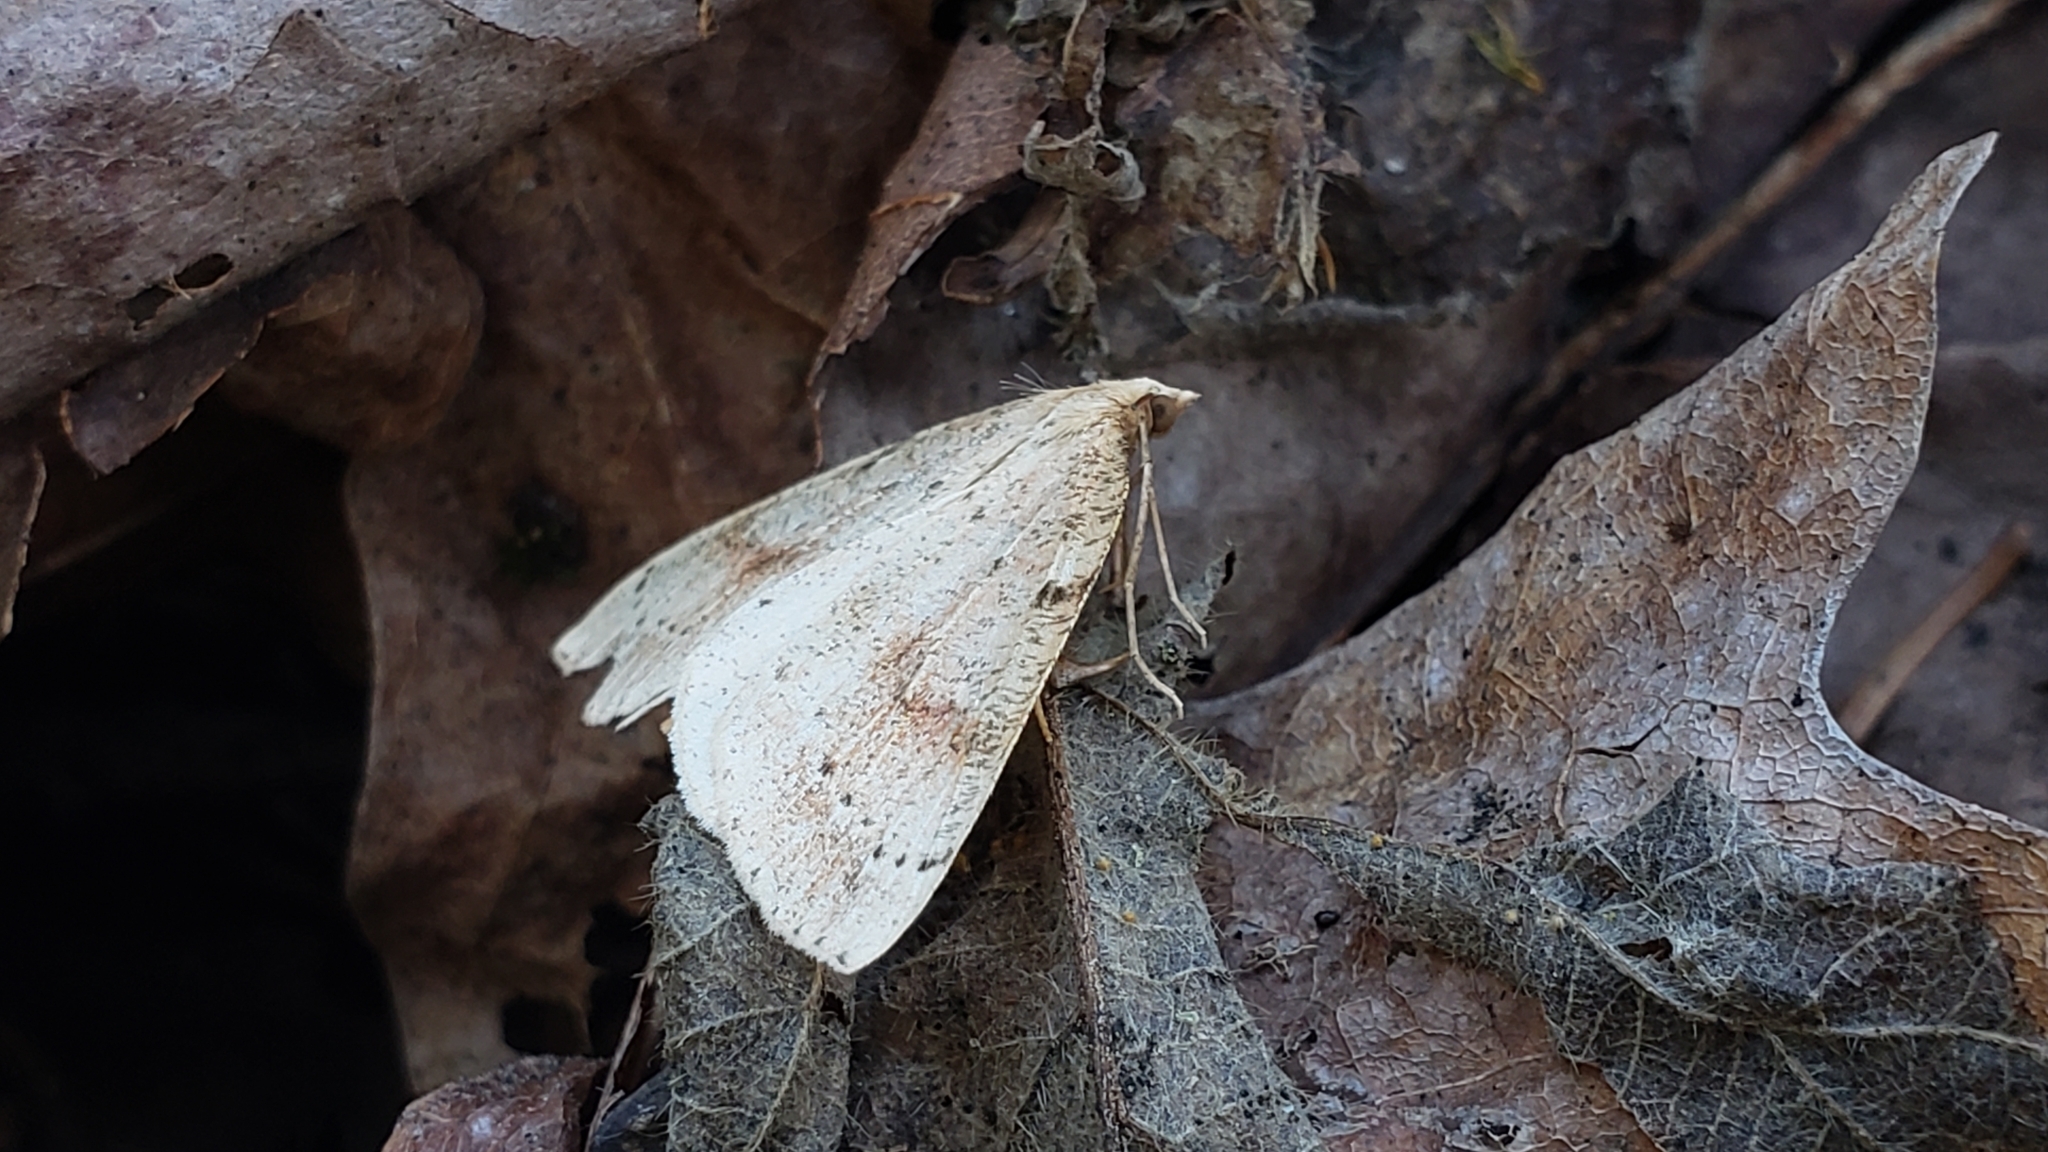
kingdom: Animalia
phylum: Arthropoda
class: Insecta
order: Lepidoptera
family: Geometridae
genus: Thallophaga
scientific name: Thallophaga hyperborea
